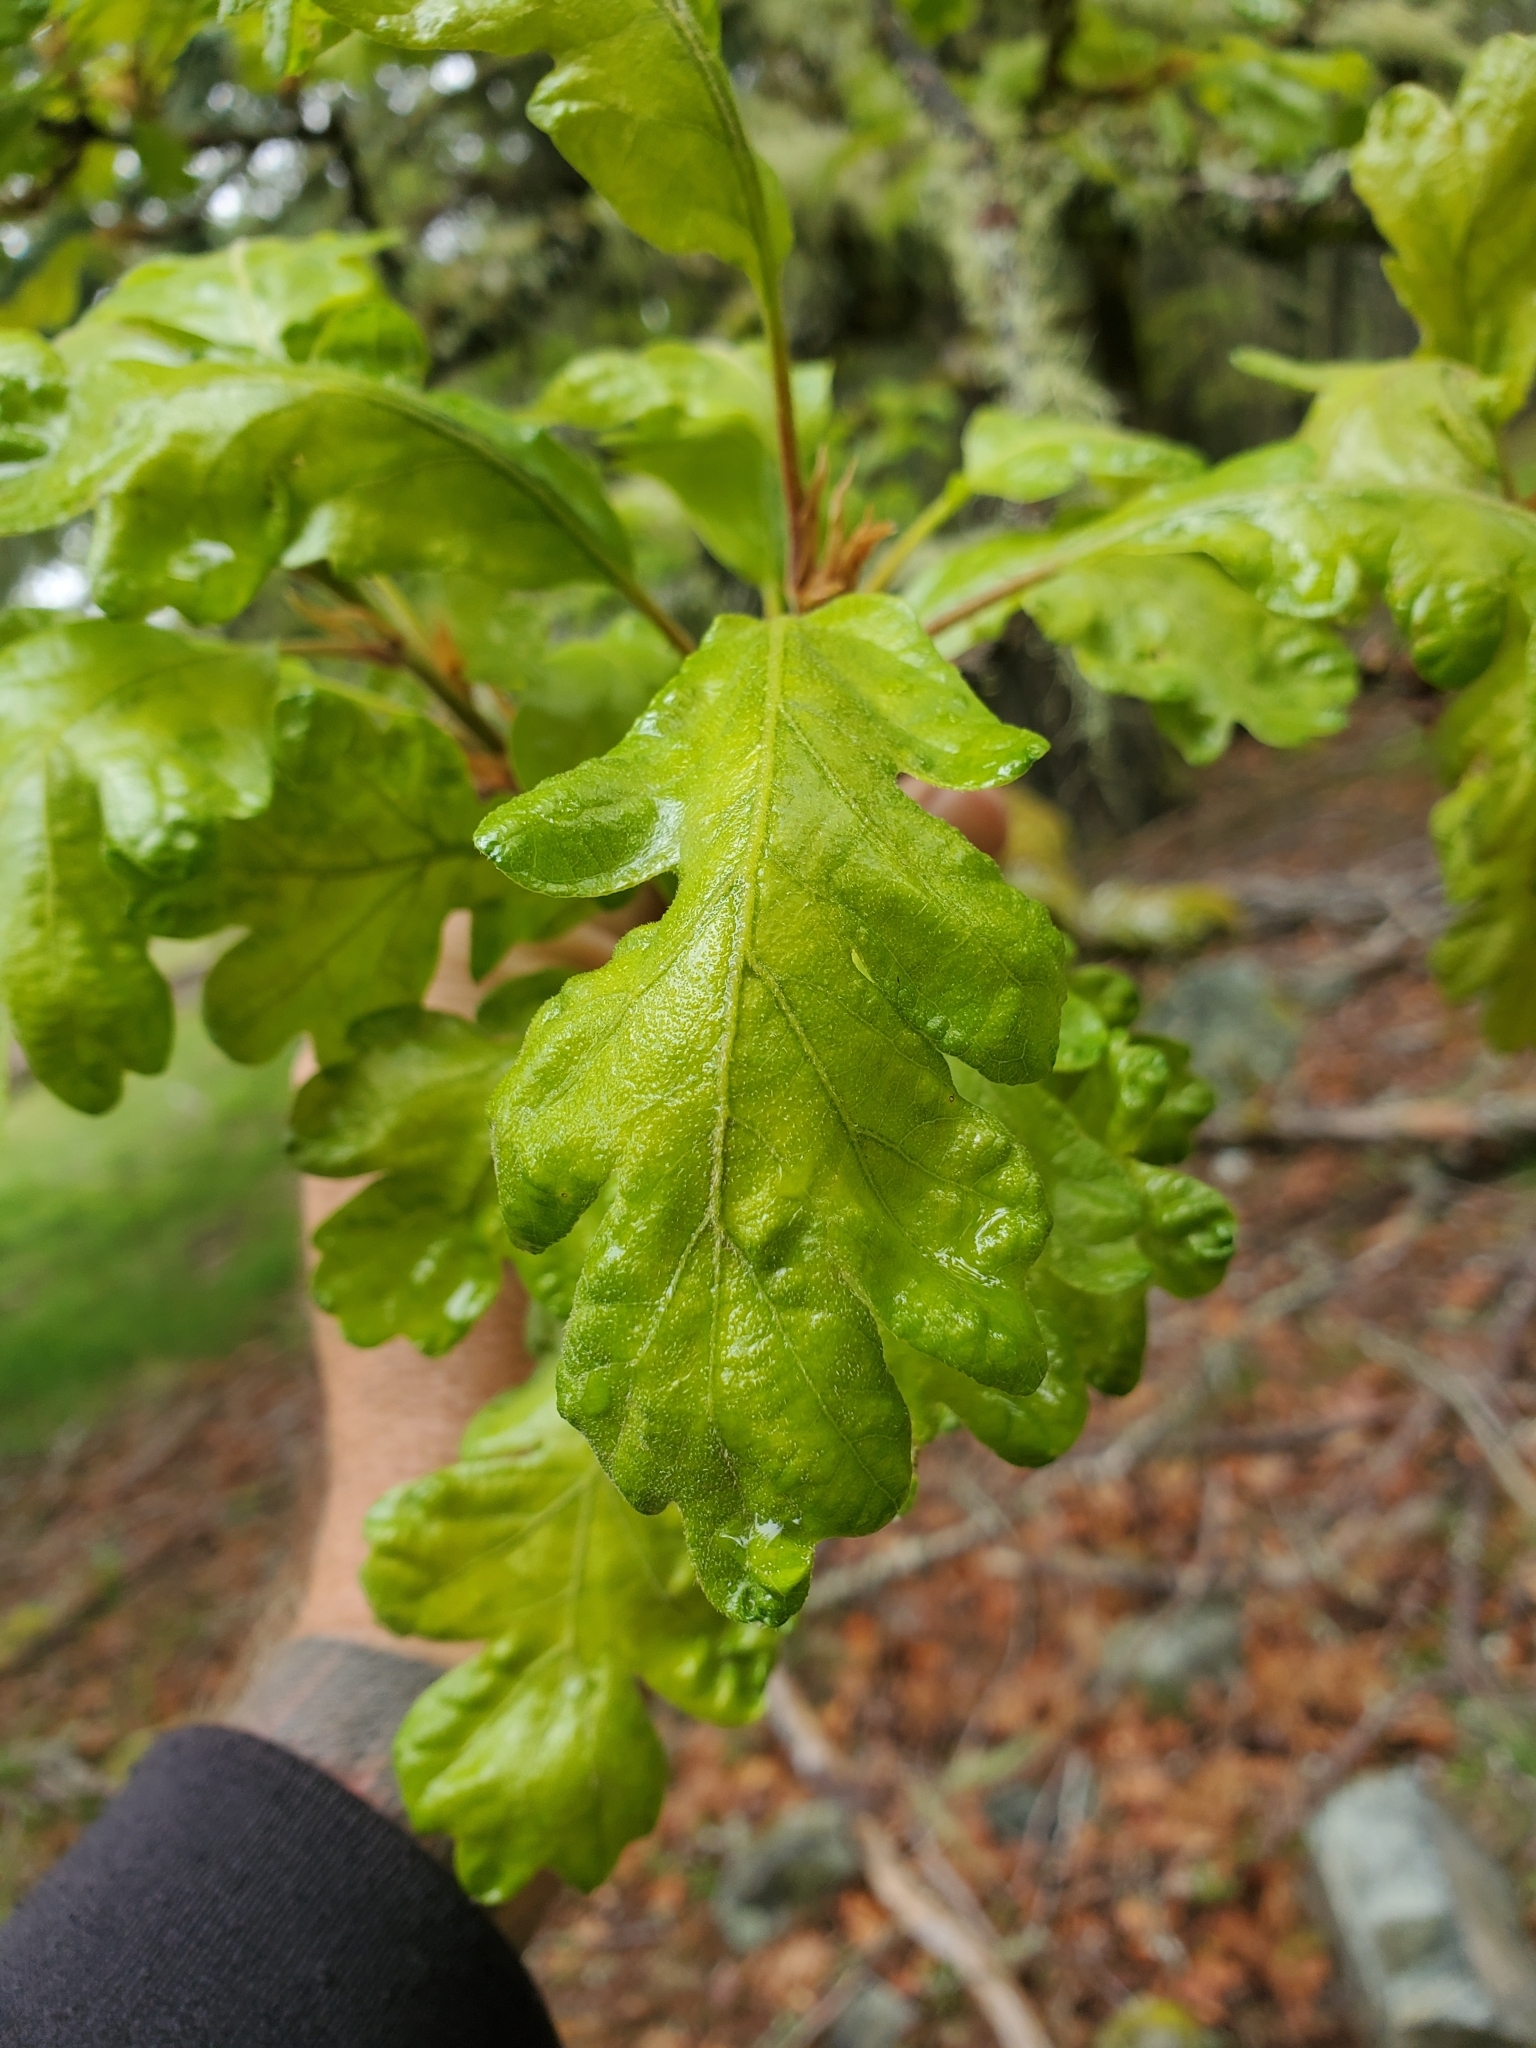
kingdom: Plantae
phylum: Tracheophyta
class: Magnoliopsida
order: Fagales
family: Fagaceae
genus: Quercus
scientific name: Quercus garryana
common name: Garry oak
